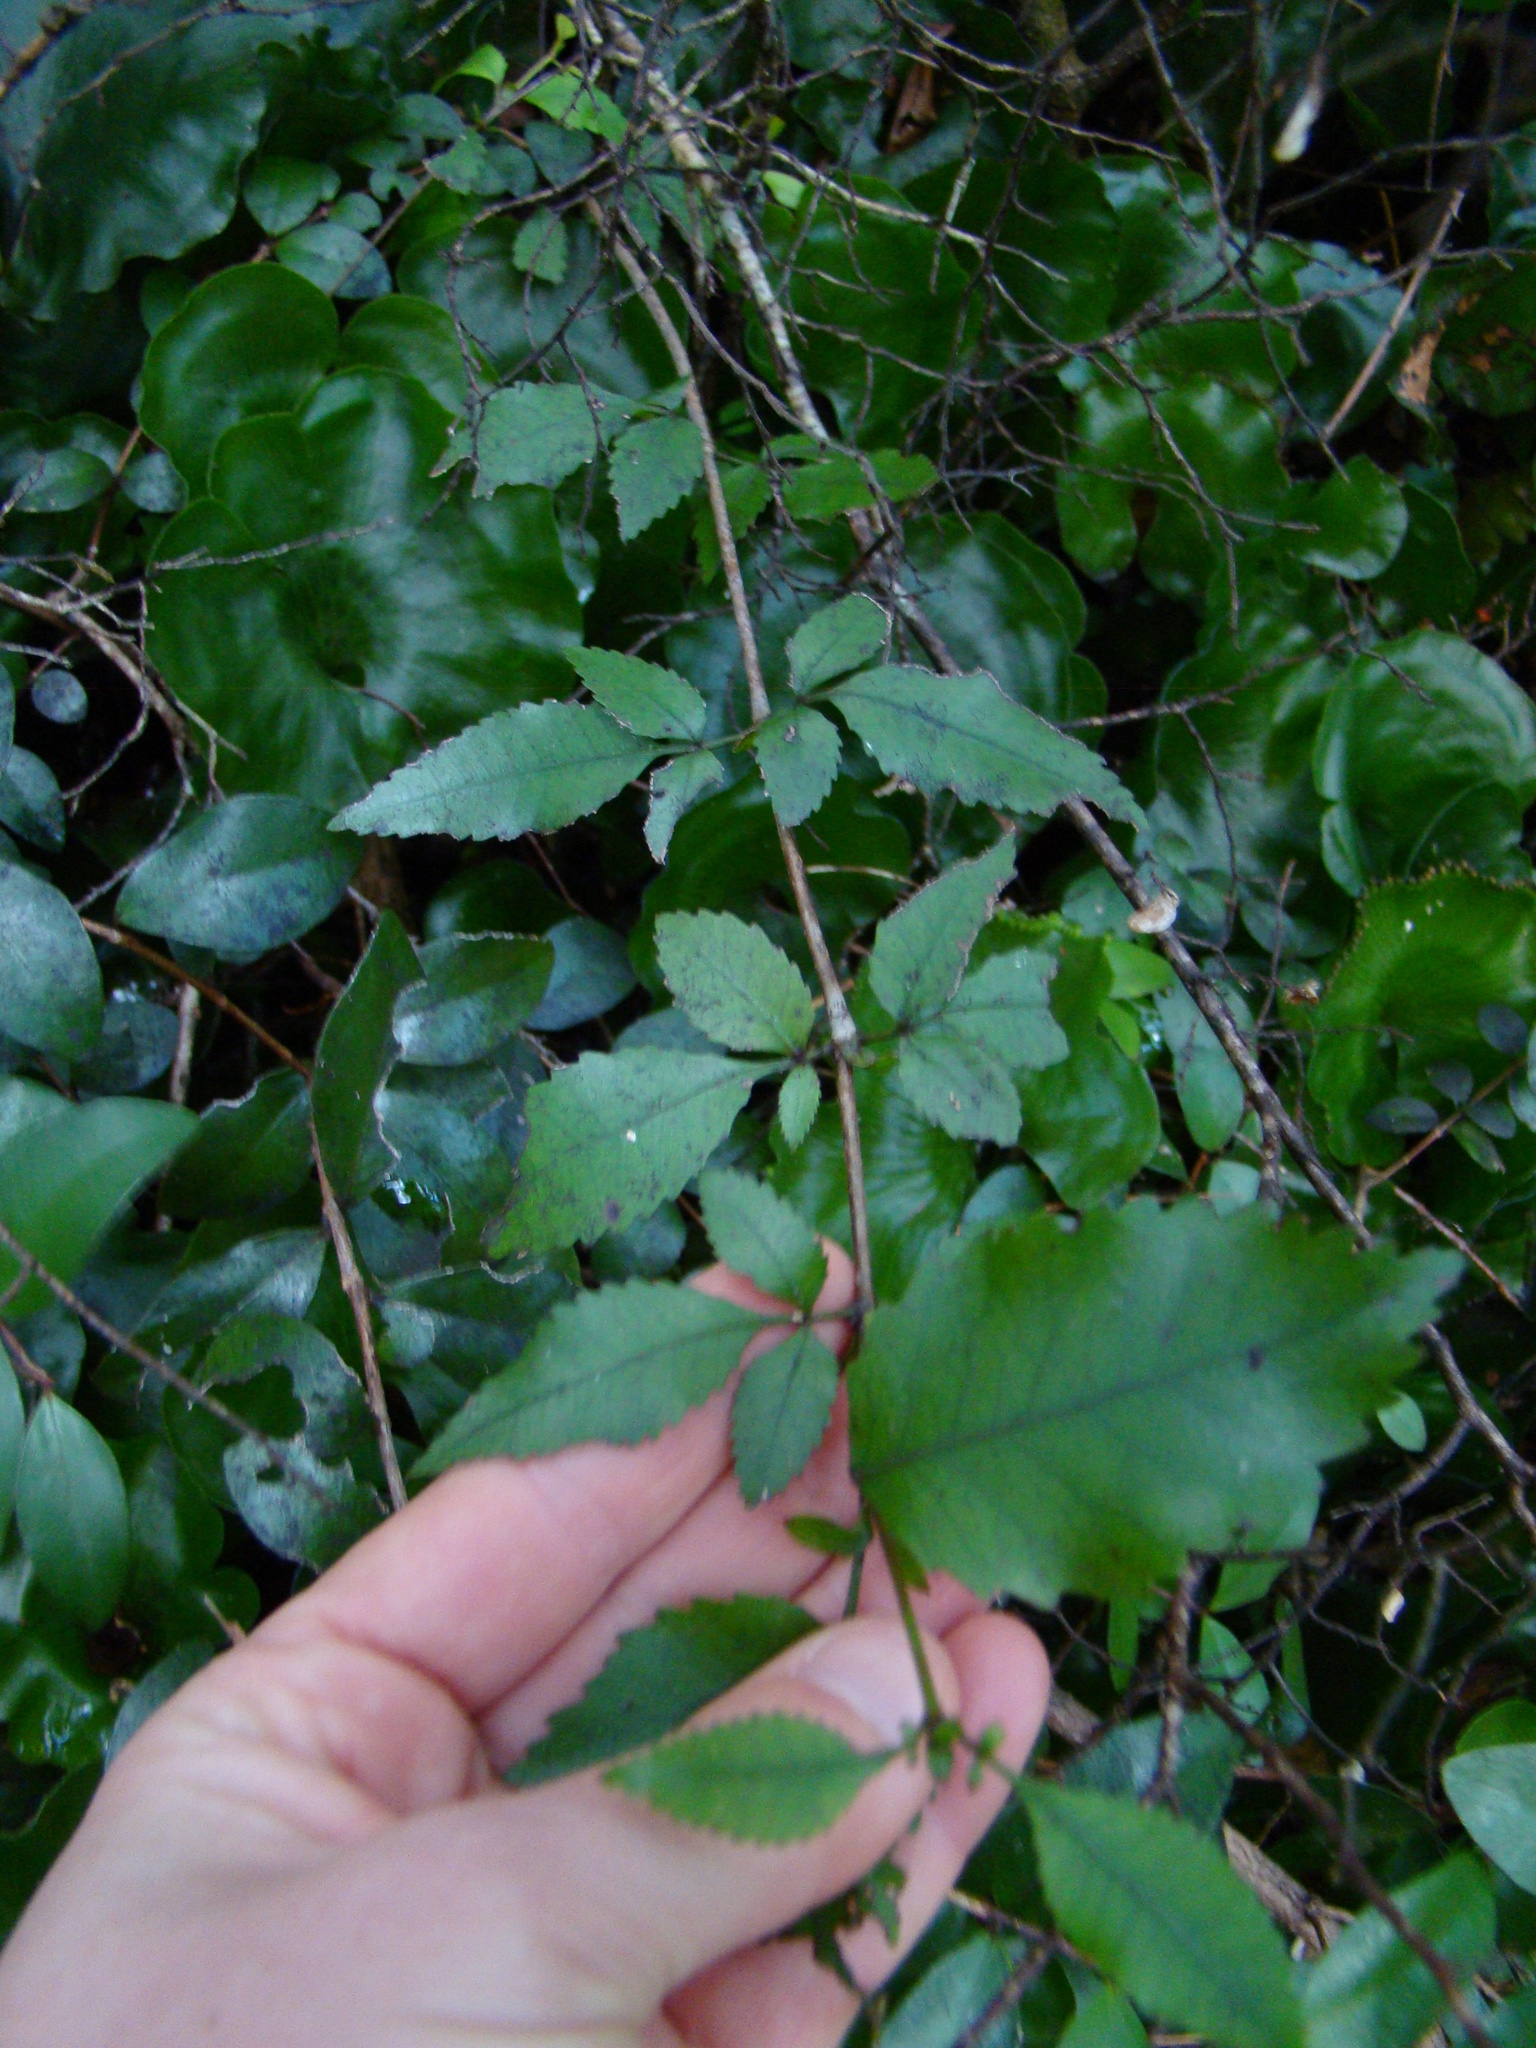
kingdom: Plantae
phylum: Tracheophyta
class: Magnoliopsida
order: Oxalidales
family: Cunoniaceae
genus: Pterophylla
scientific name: Pterophylla racemosa
